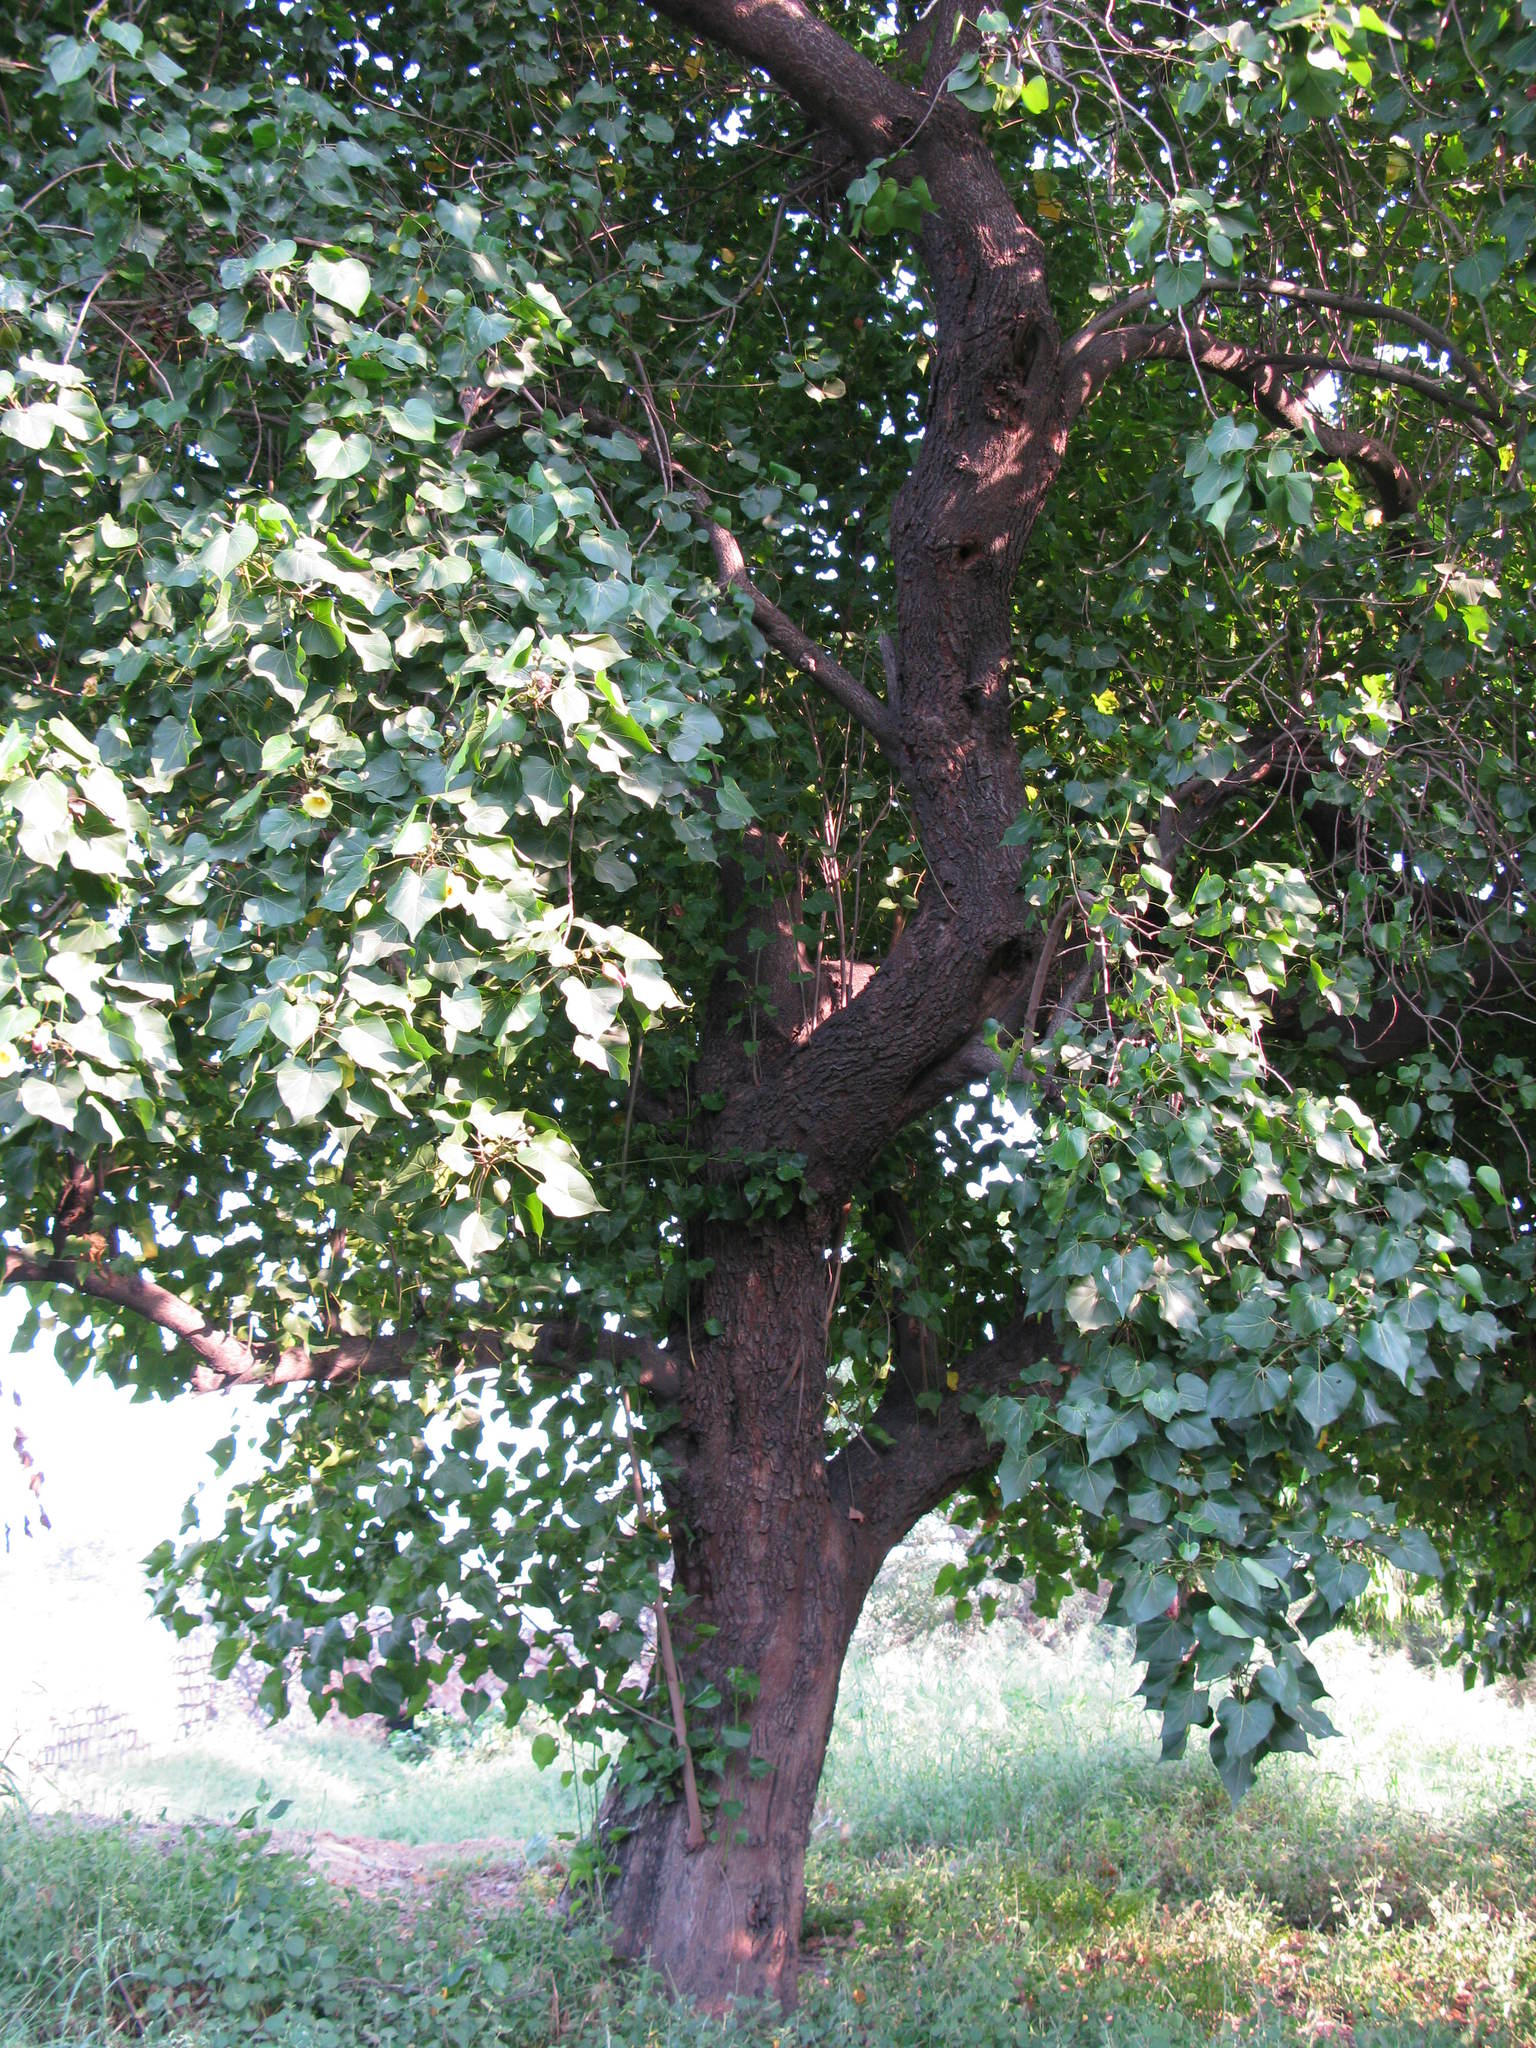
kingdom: Plantae
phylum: Tracheophyta
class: Magnoliopsida
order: Malvales
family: Malvaceae
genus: Thespesia
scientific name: Thespesia populnea
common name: Seaside mahoe
